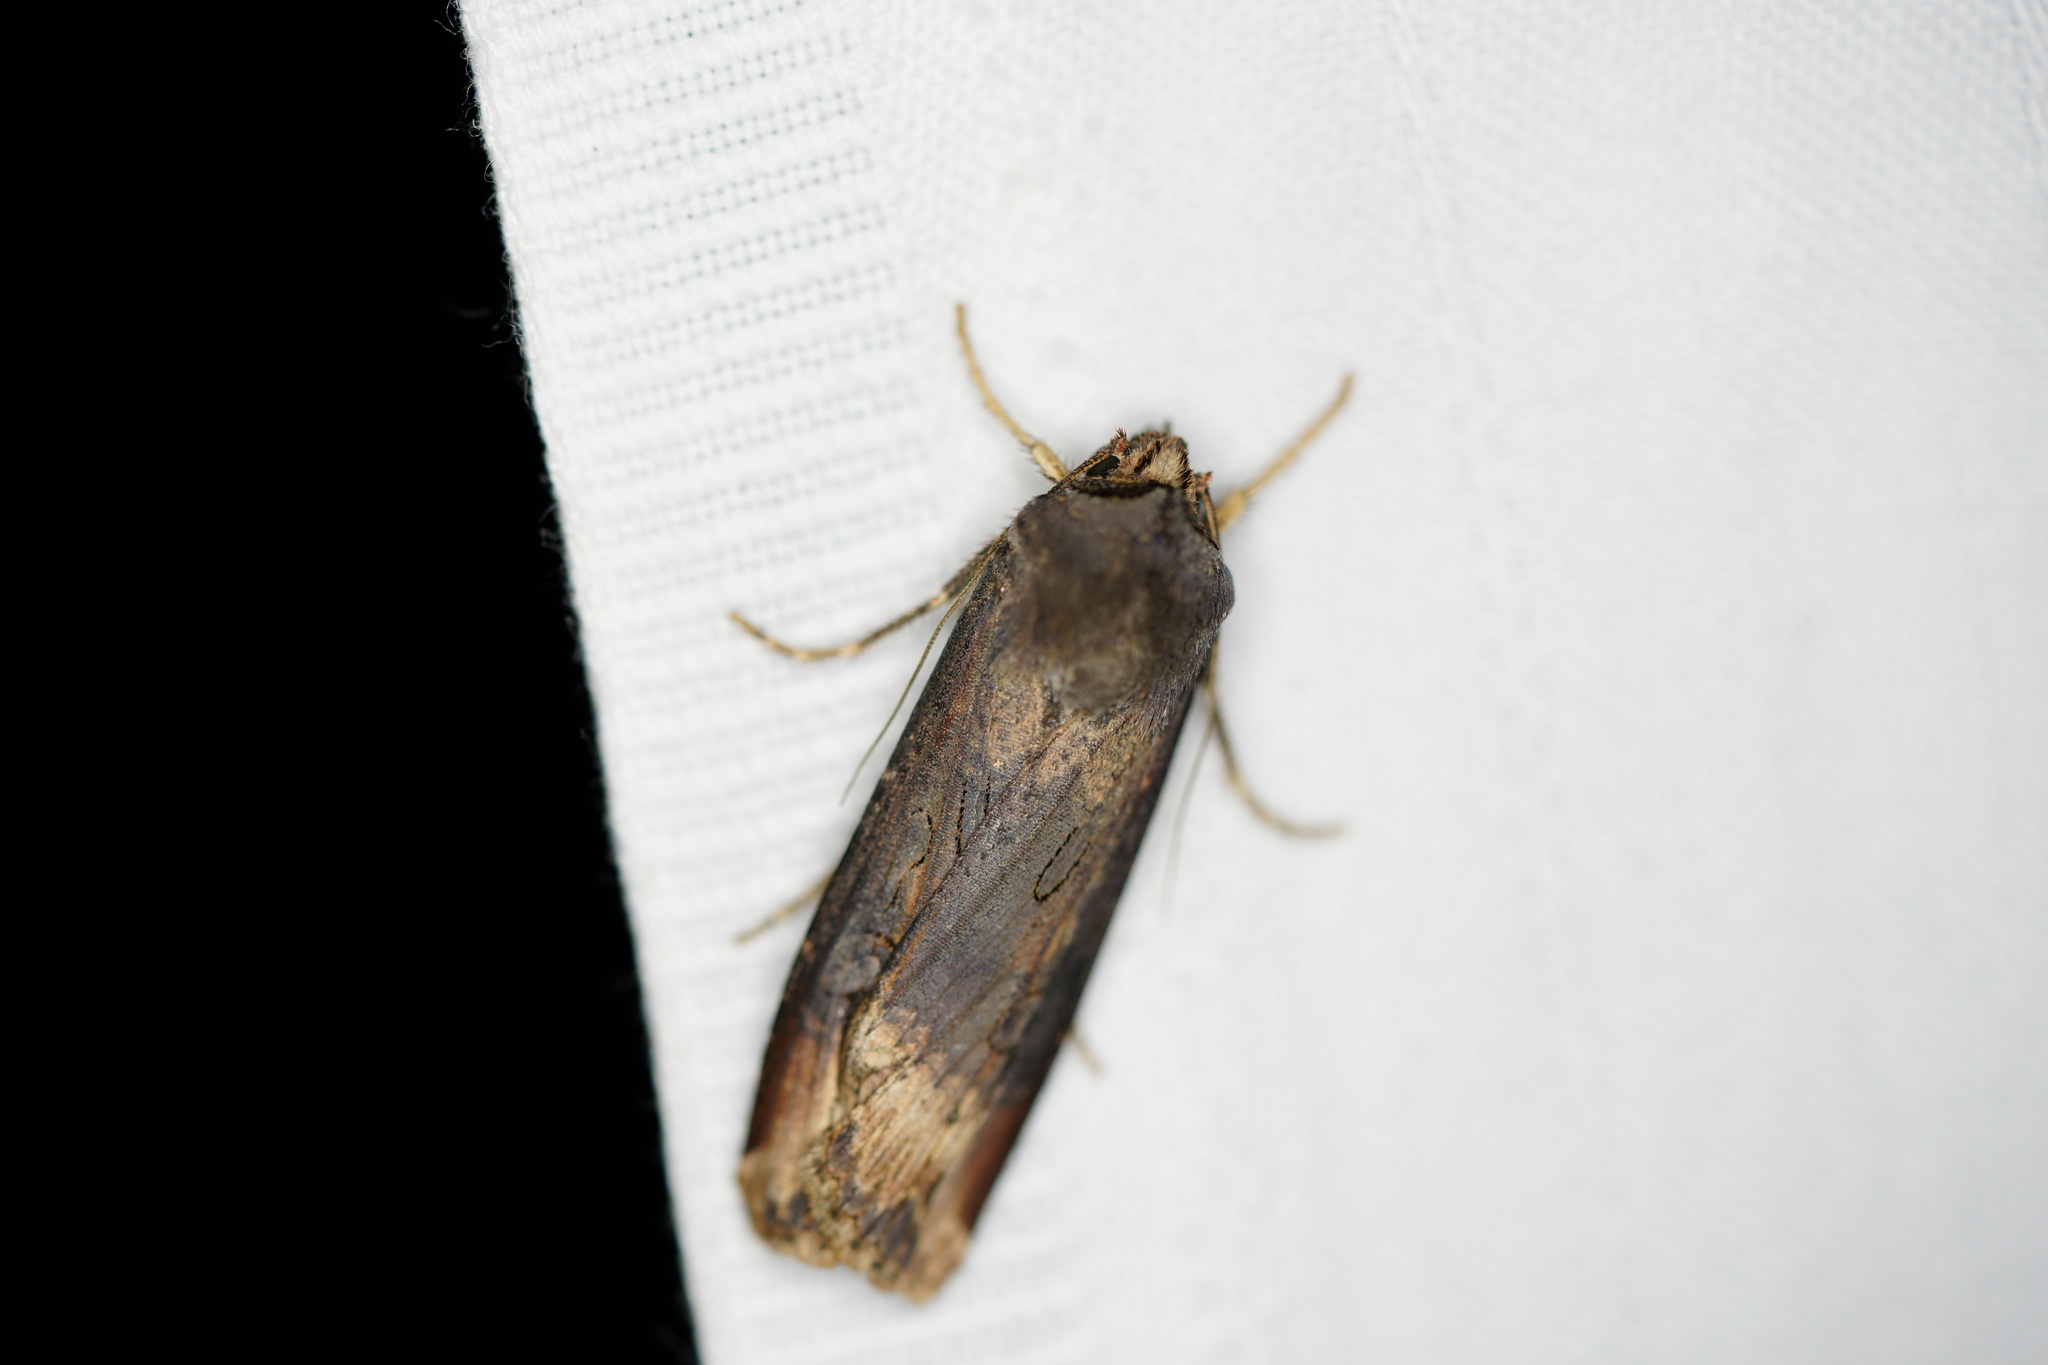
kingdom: Animalia
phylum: Arthropoda
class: Insecta
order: Lepidoptera
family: Noctuidae
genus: Agrotis
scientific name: Agrotis ipsilon
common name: Dark sword-grass
